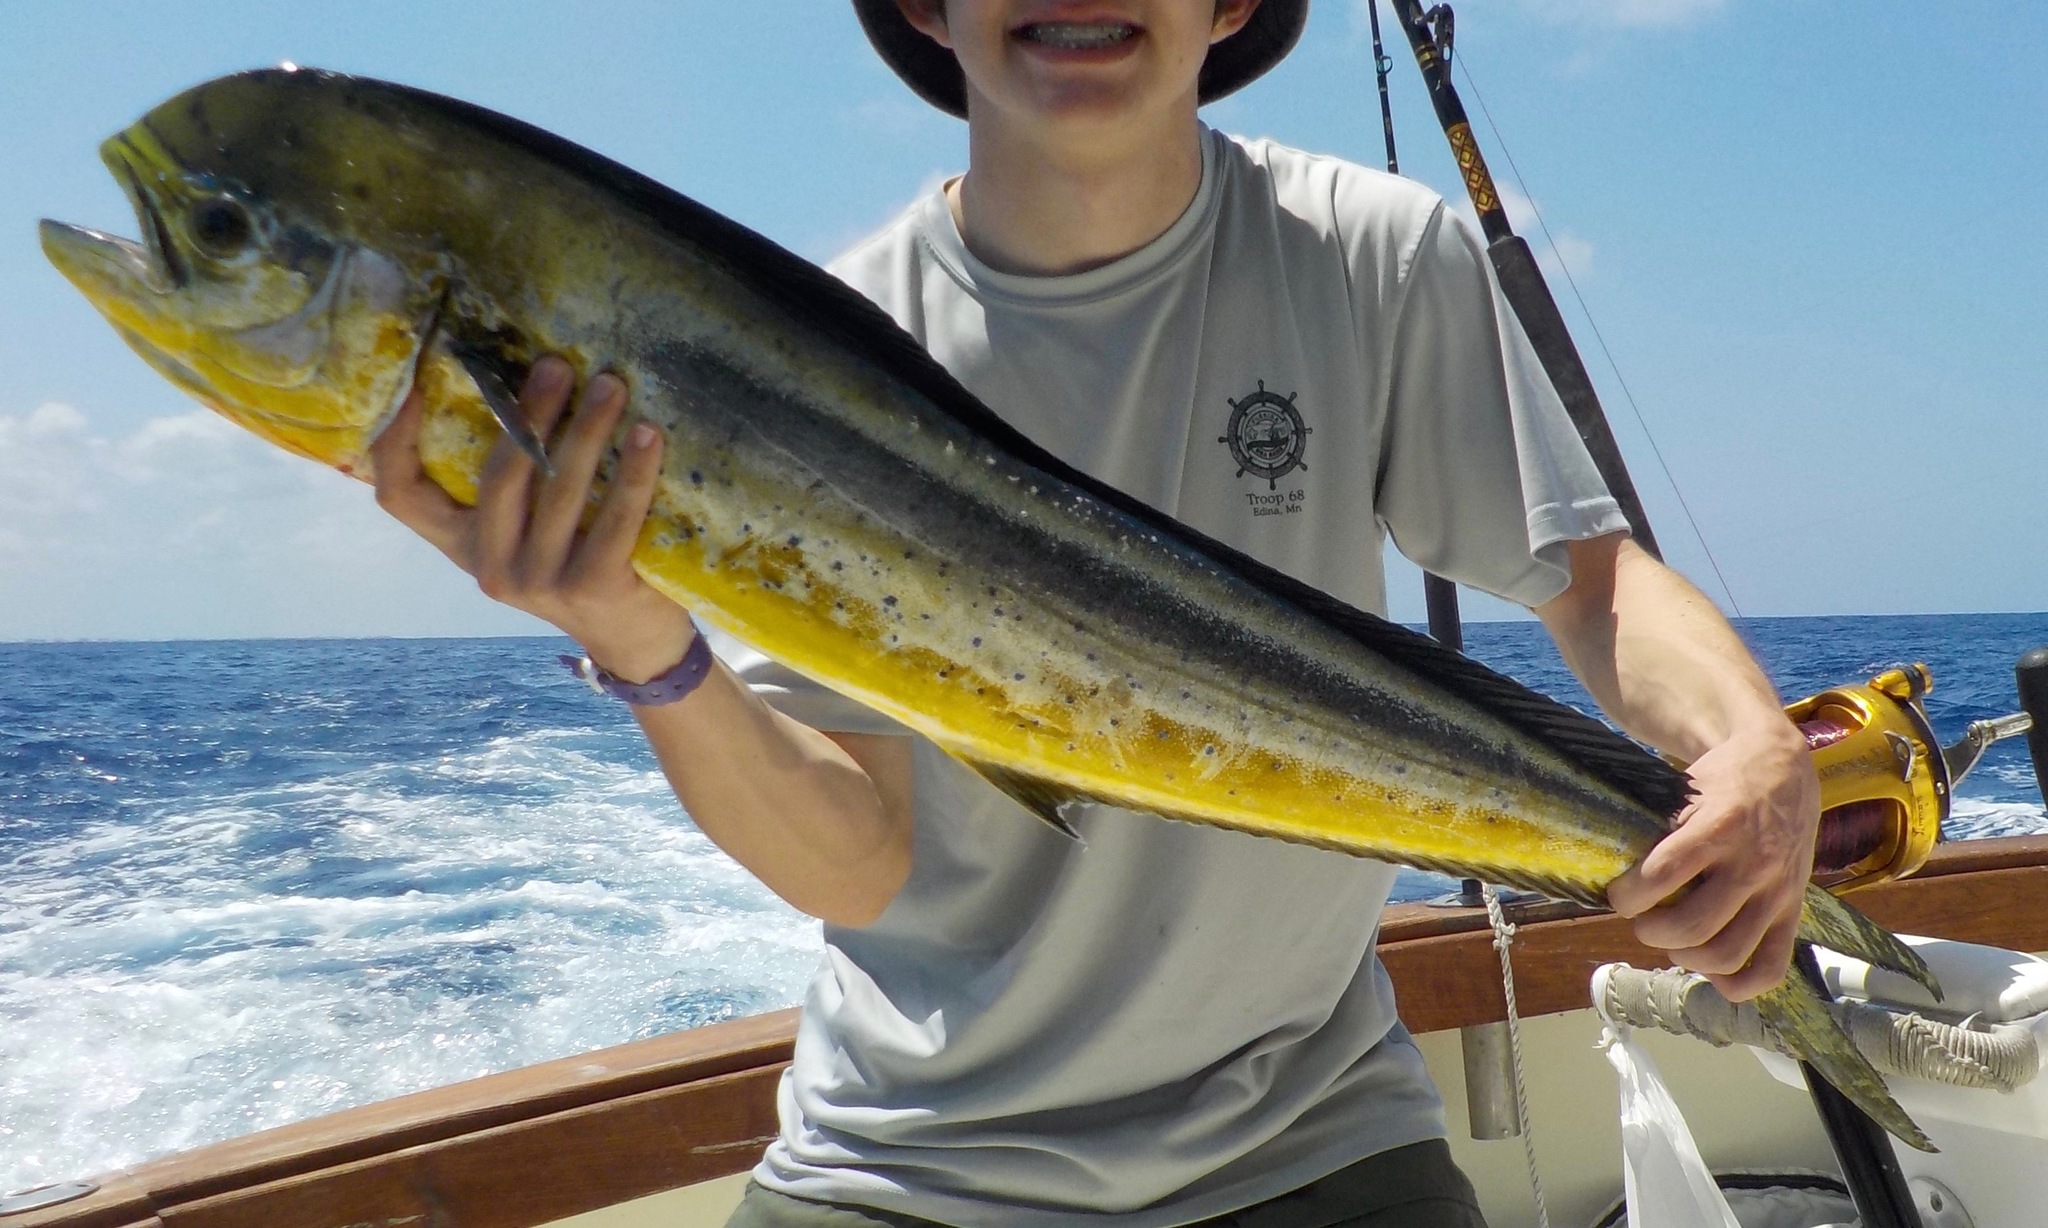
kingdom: Animalia
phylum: Chordata
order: Perciformes
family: Coryphaenidae
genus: Coryphaena
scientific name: Coryphaena hippurus
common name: Dolphin
